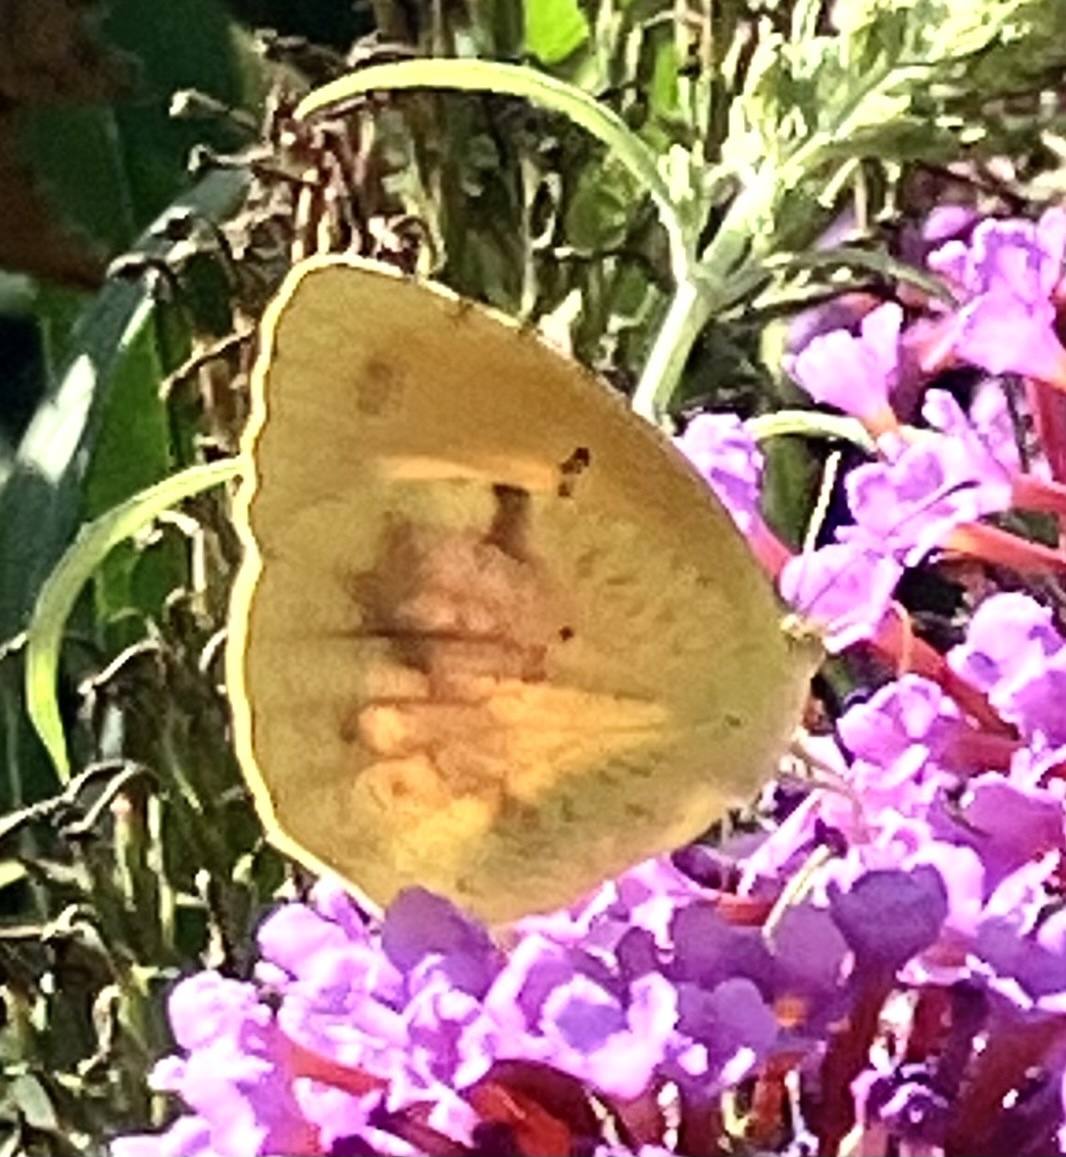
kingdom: Animalia
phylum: Arthropoda
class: Insecta
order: Lepidoptera
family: Pieridae
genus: Abaeis
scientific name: Abaeis nicippe
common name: Sleepy orange
